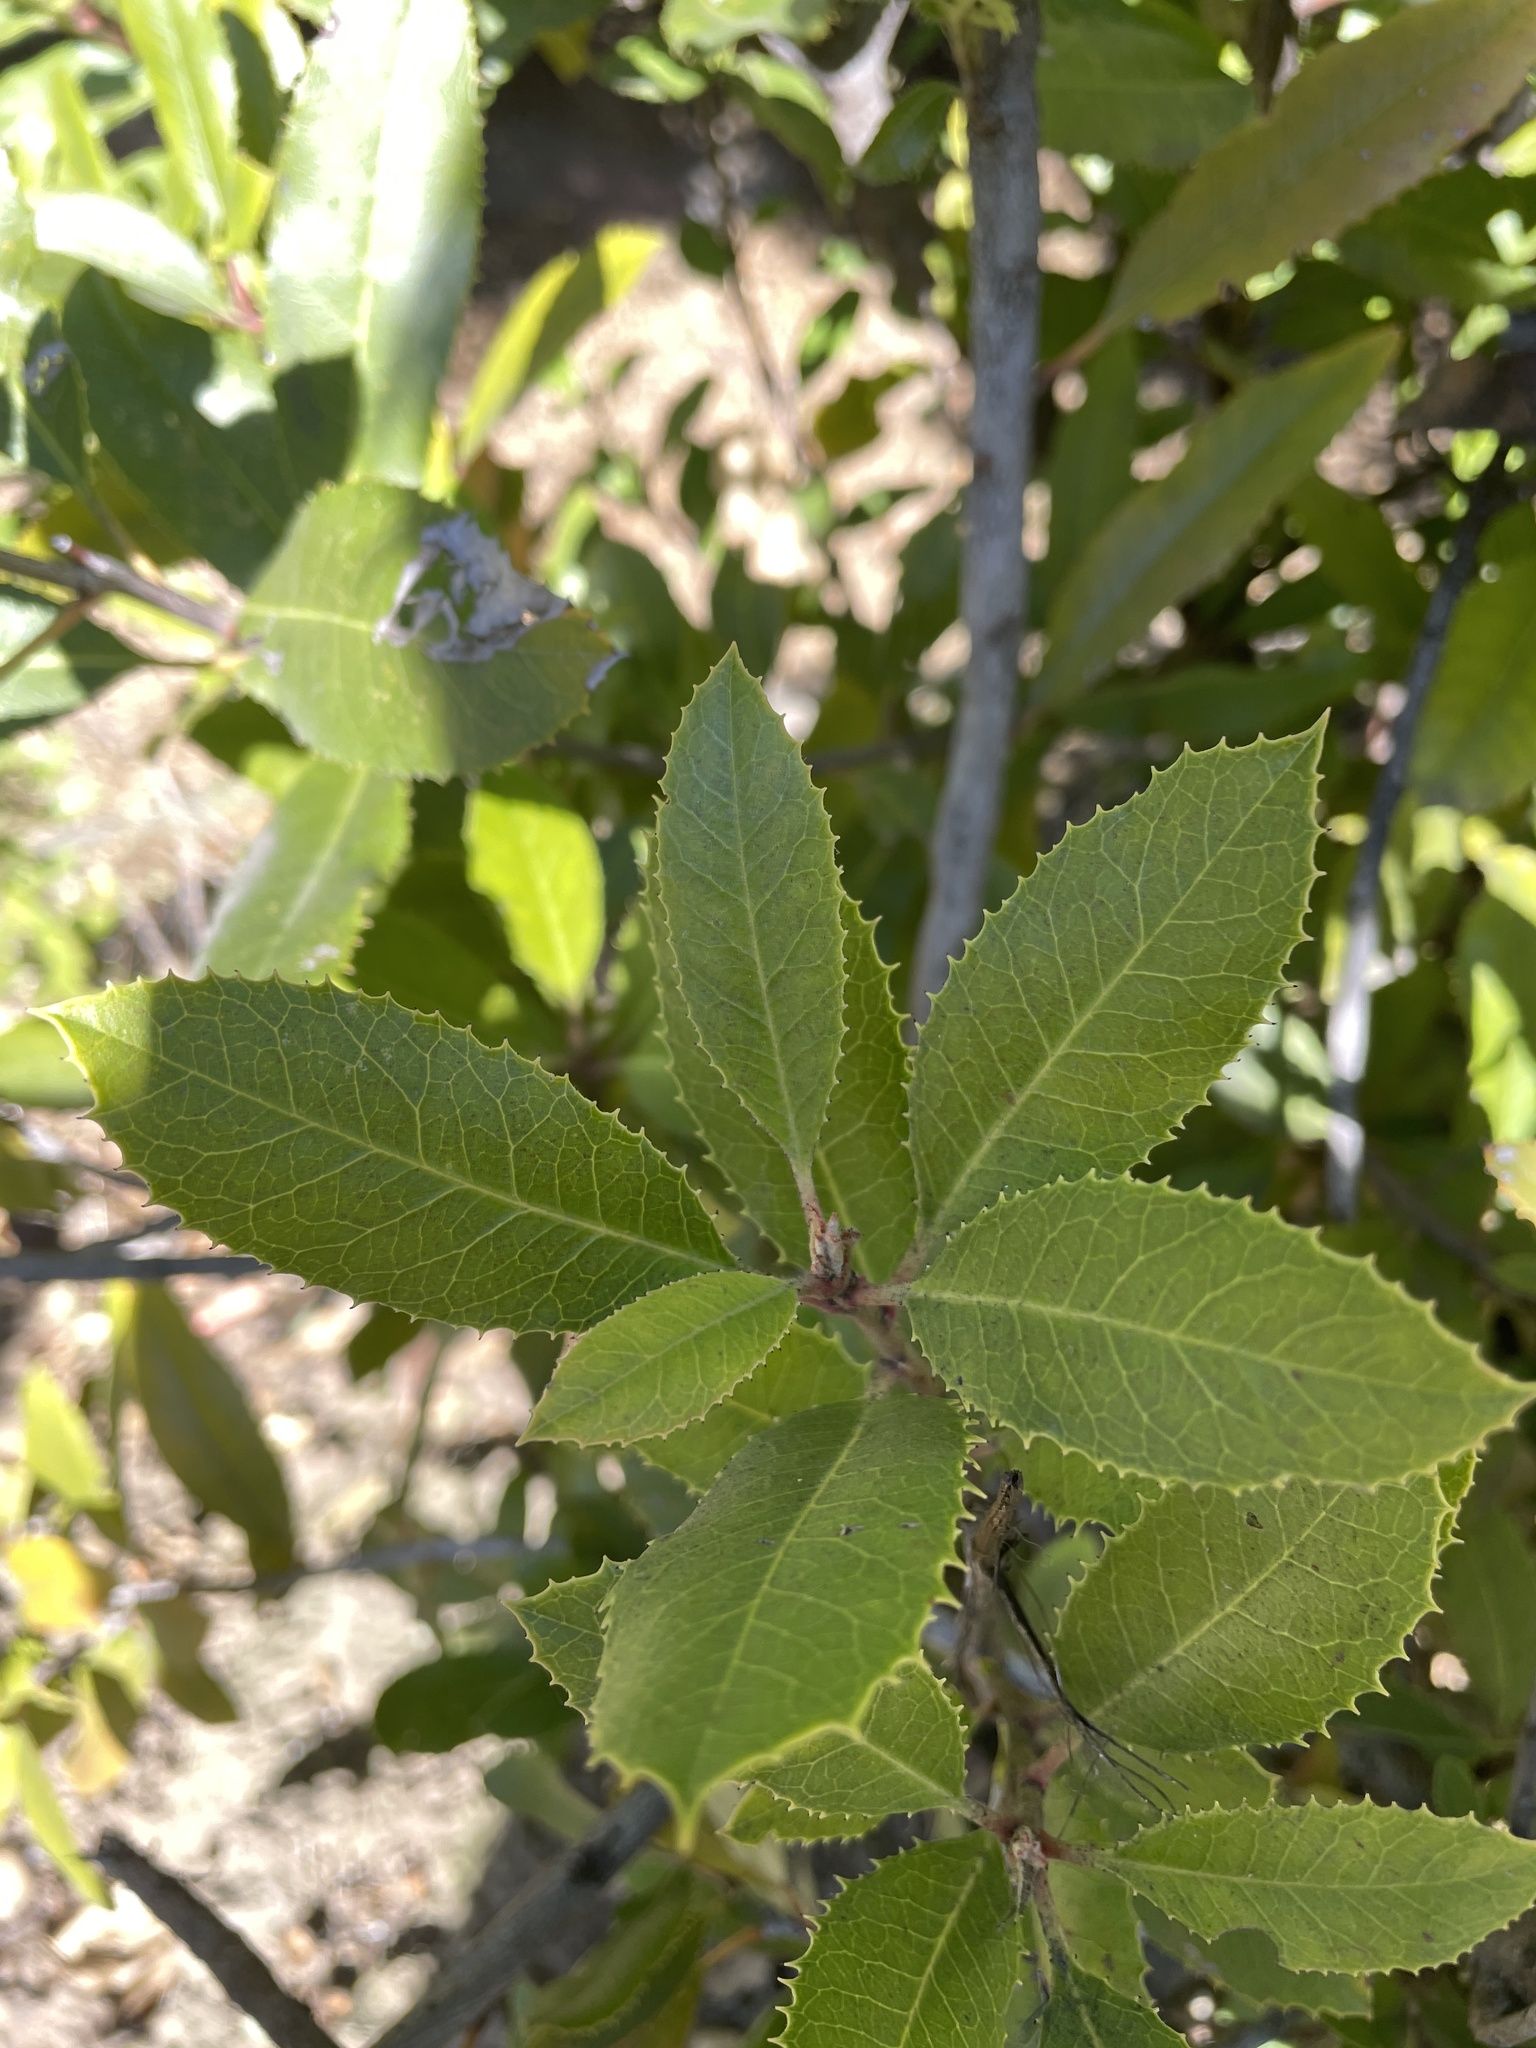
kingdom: Plantae
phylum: Tracheophyta
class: Magnoliopsida
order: Rosales
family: Rosaceae
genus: Heteromeles
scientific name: Heteromeles arbutifolia
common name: California-holly
